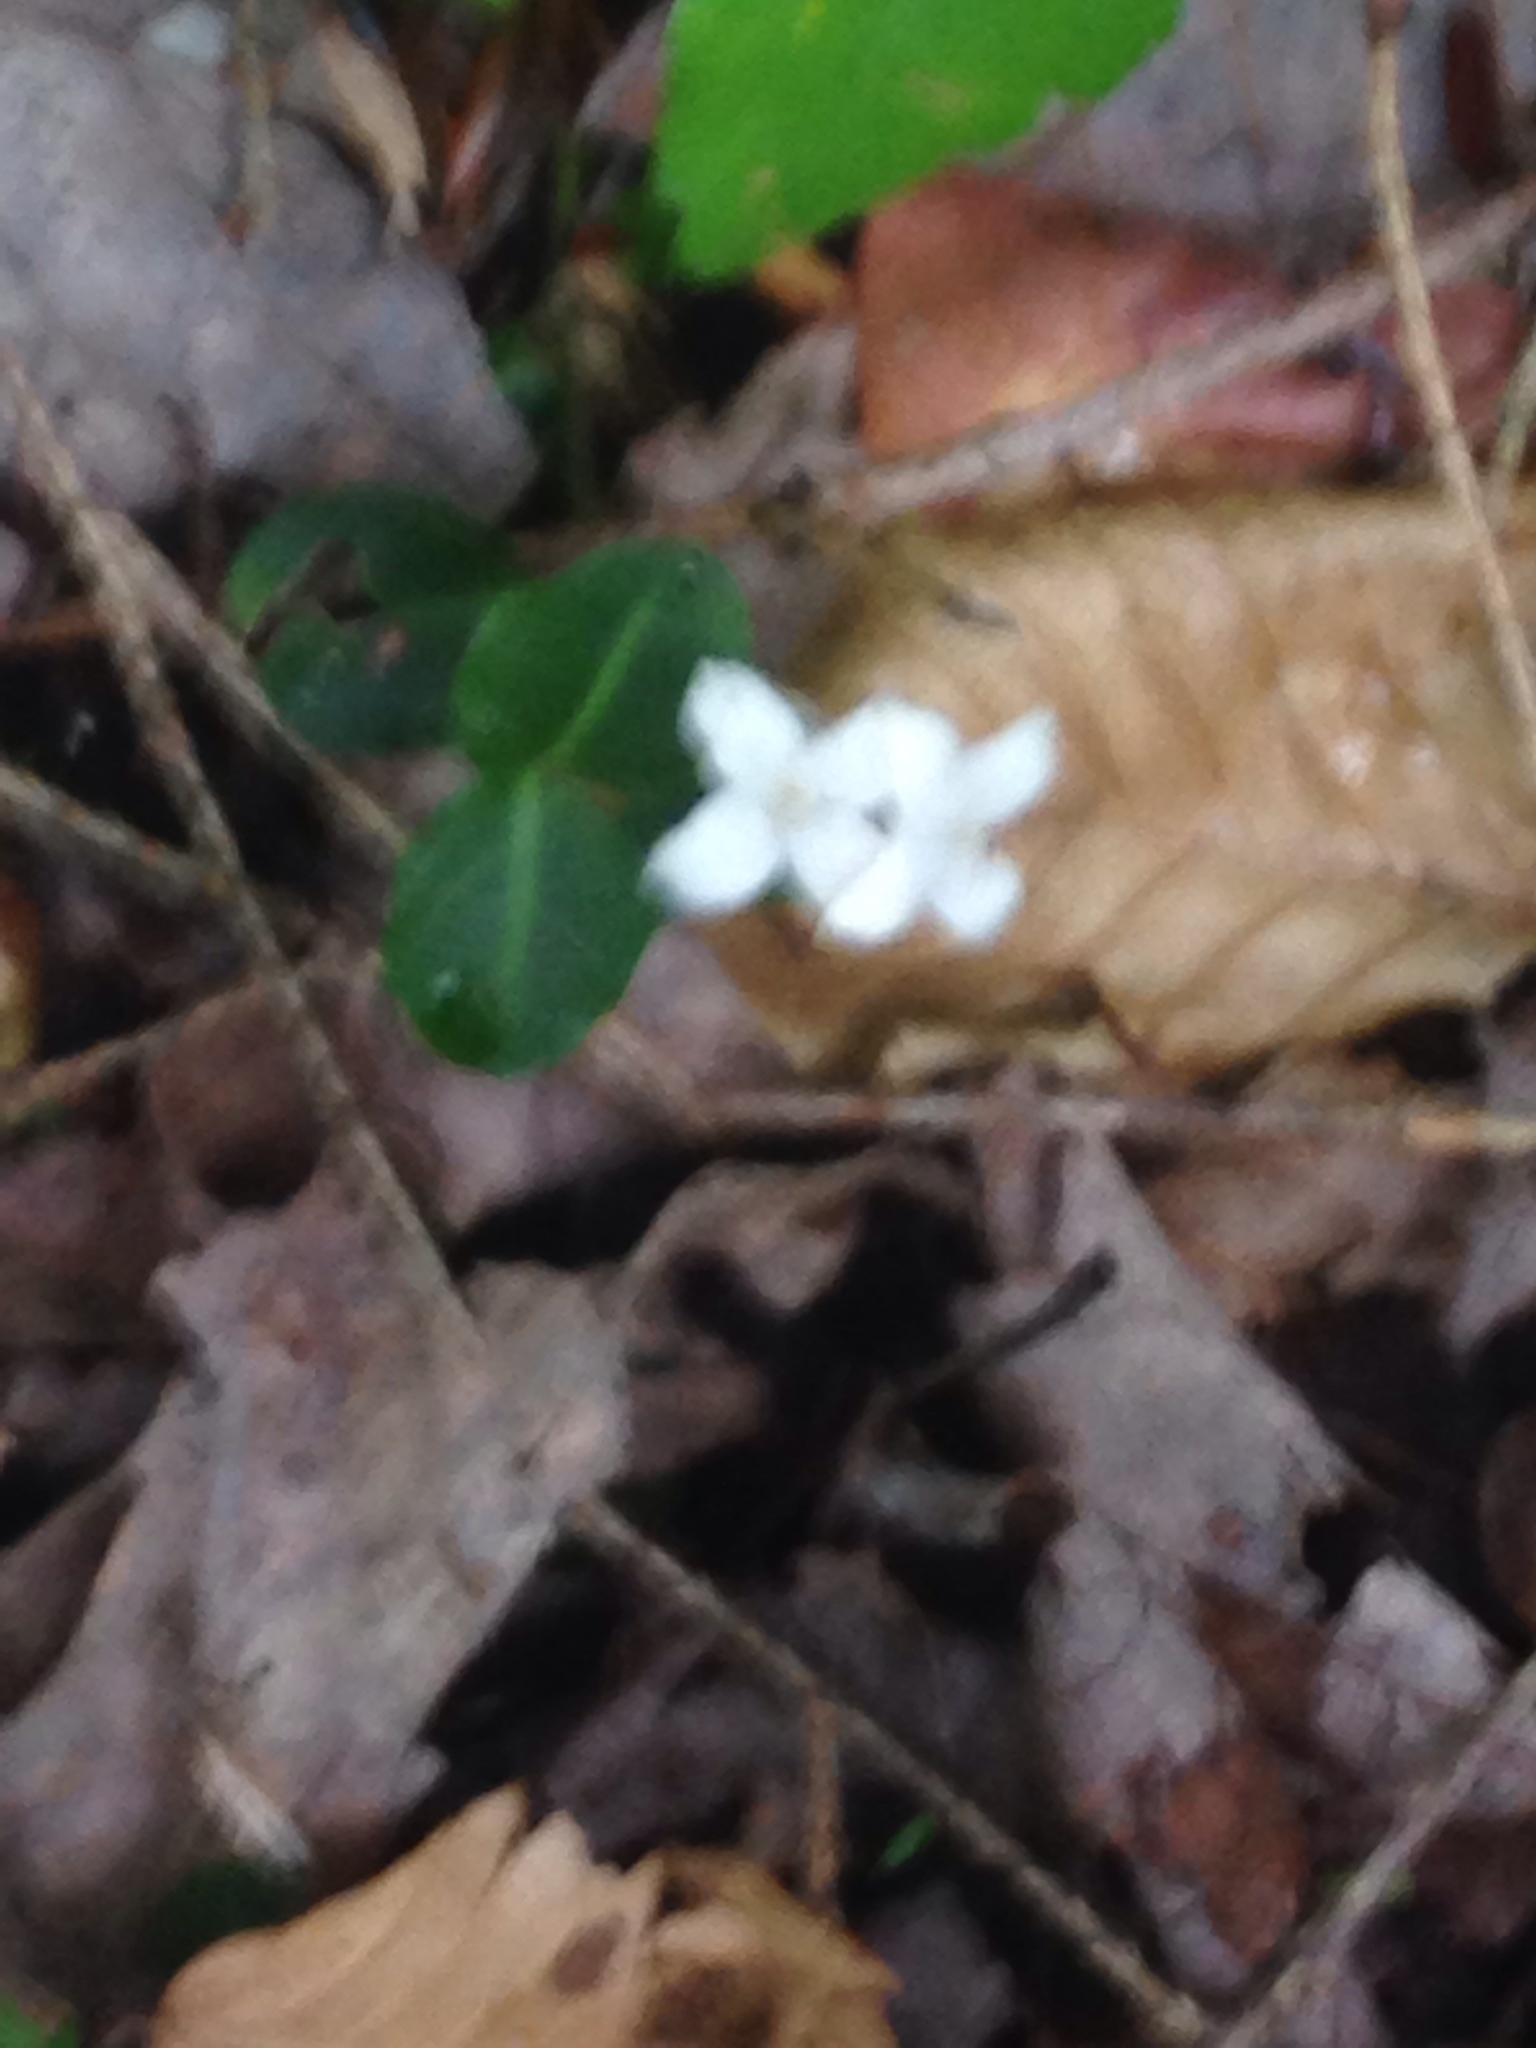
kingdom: Plantae
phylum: Tracheophyta
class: Magnoliopsida
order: Gentianales
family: Rubiaceae
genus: Mitchella
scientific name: Mitchella repens
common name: Partridge-berry
